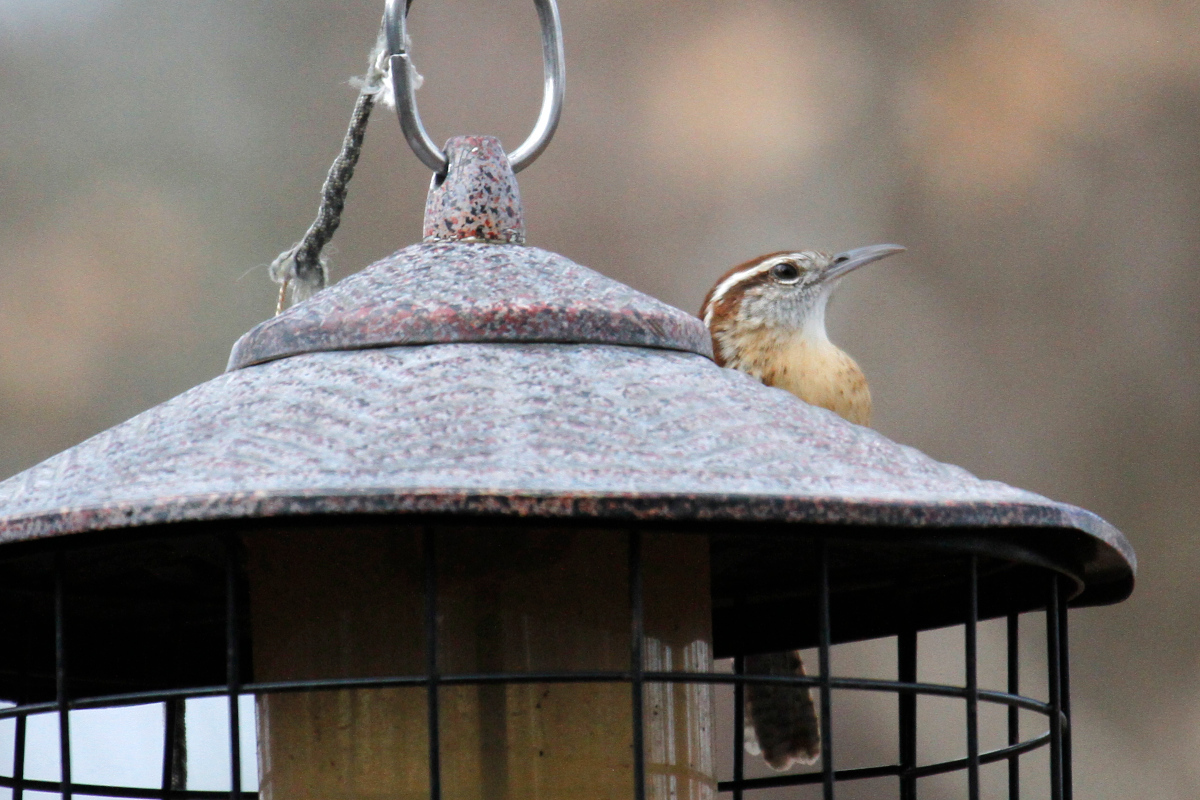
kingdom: Animalia
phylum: Chordata
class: Aves
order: Passeriformes
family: Troglodytidae
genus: Thryothorus
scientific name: Thryothorus ludovicianus
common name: Carolina wren
